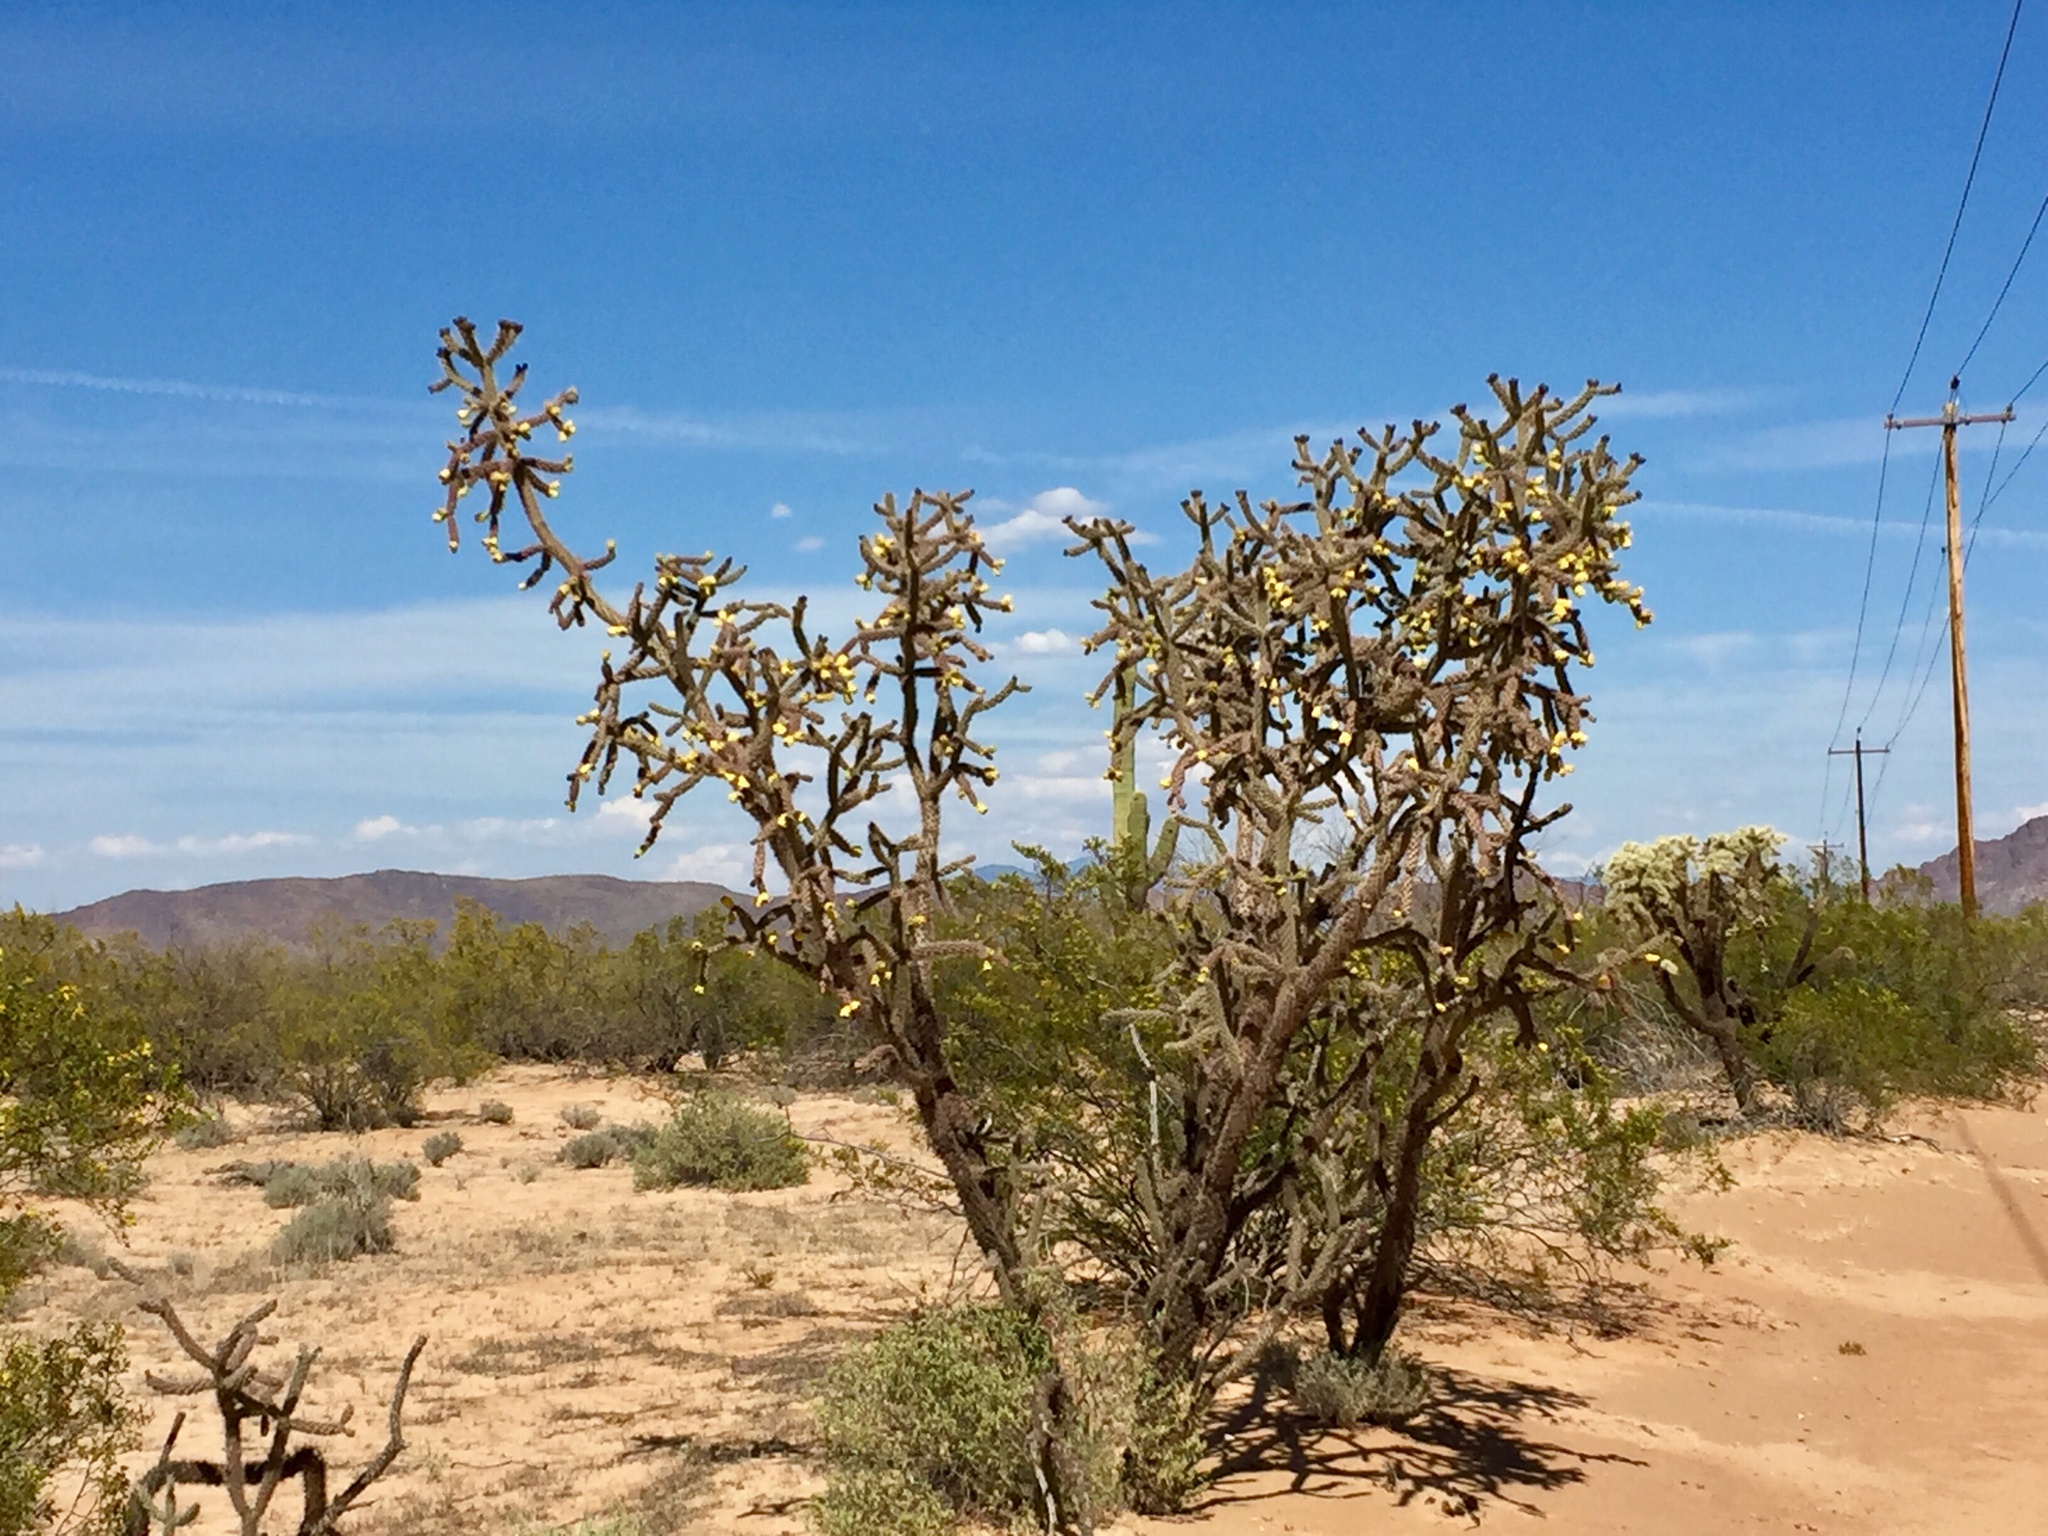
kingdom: Plantae
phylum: Tracheophyta
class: Magnoliopsida
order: Caryophyllales
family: Cactaceae
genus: Cylindropuntia
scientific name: Cylindropuntia imbricata
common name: Candelabrum cactus
